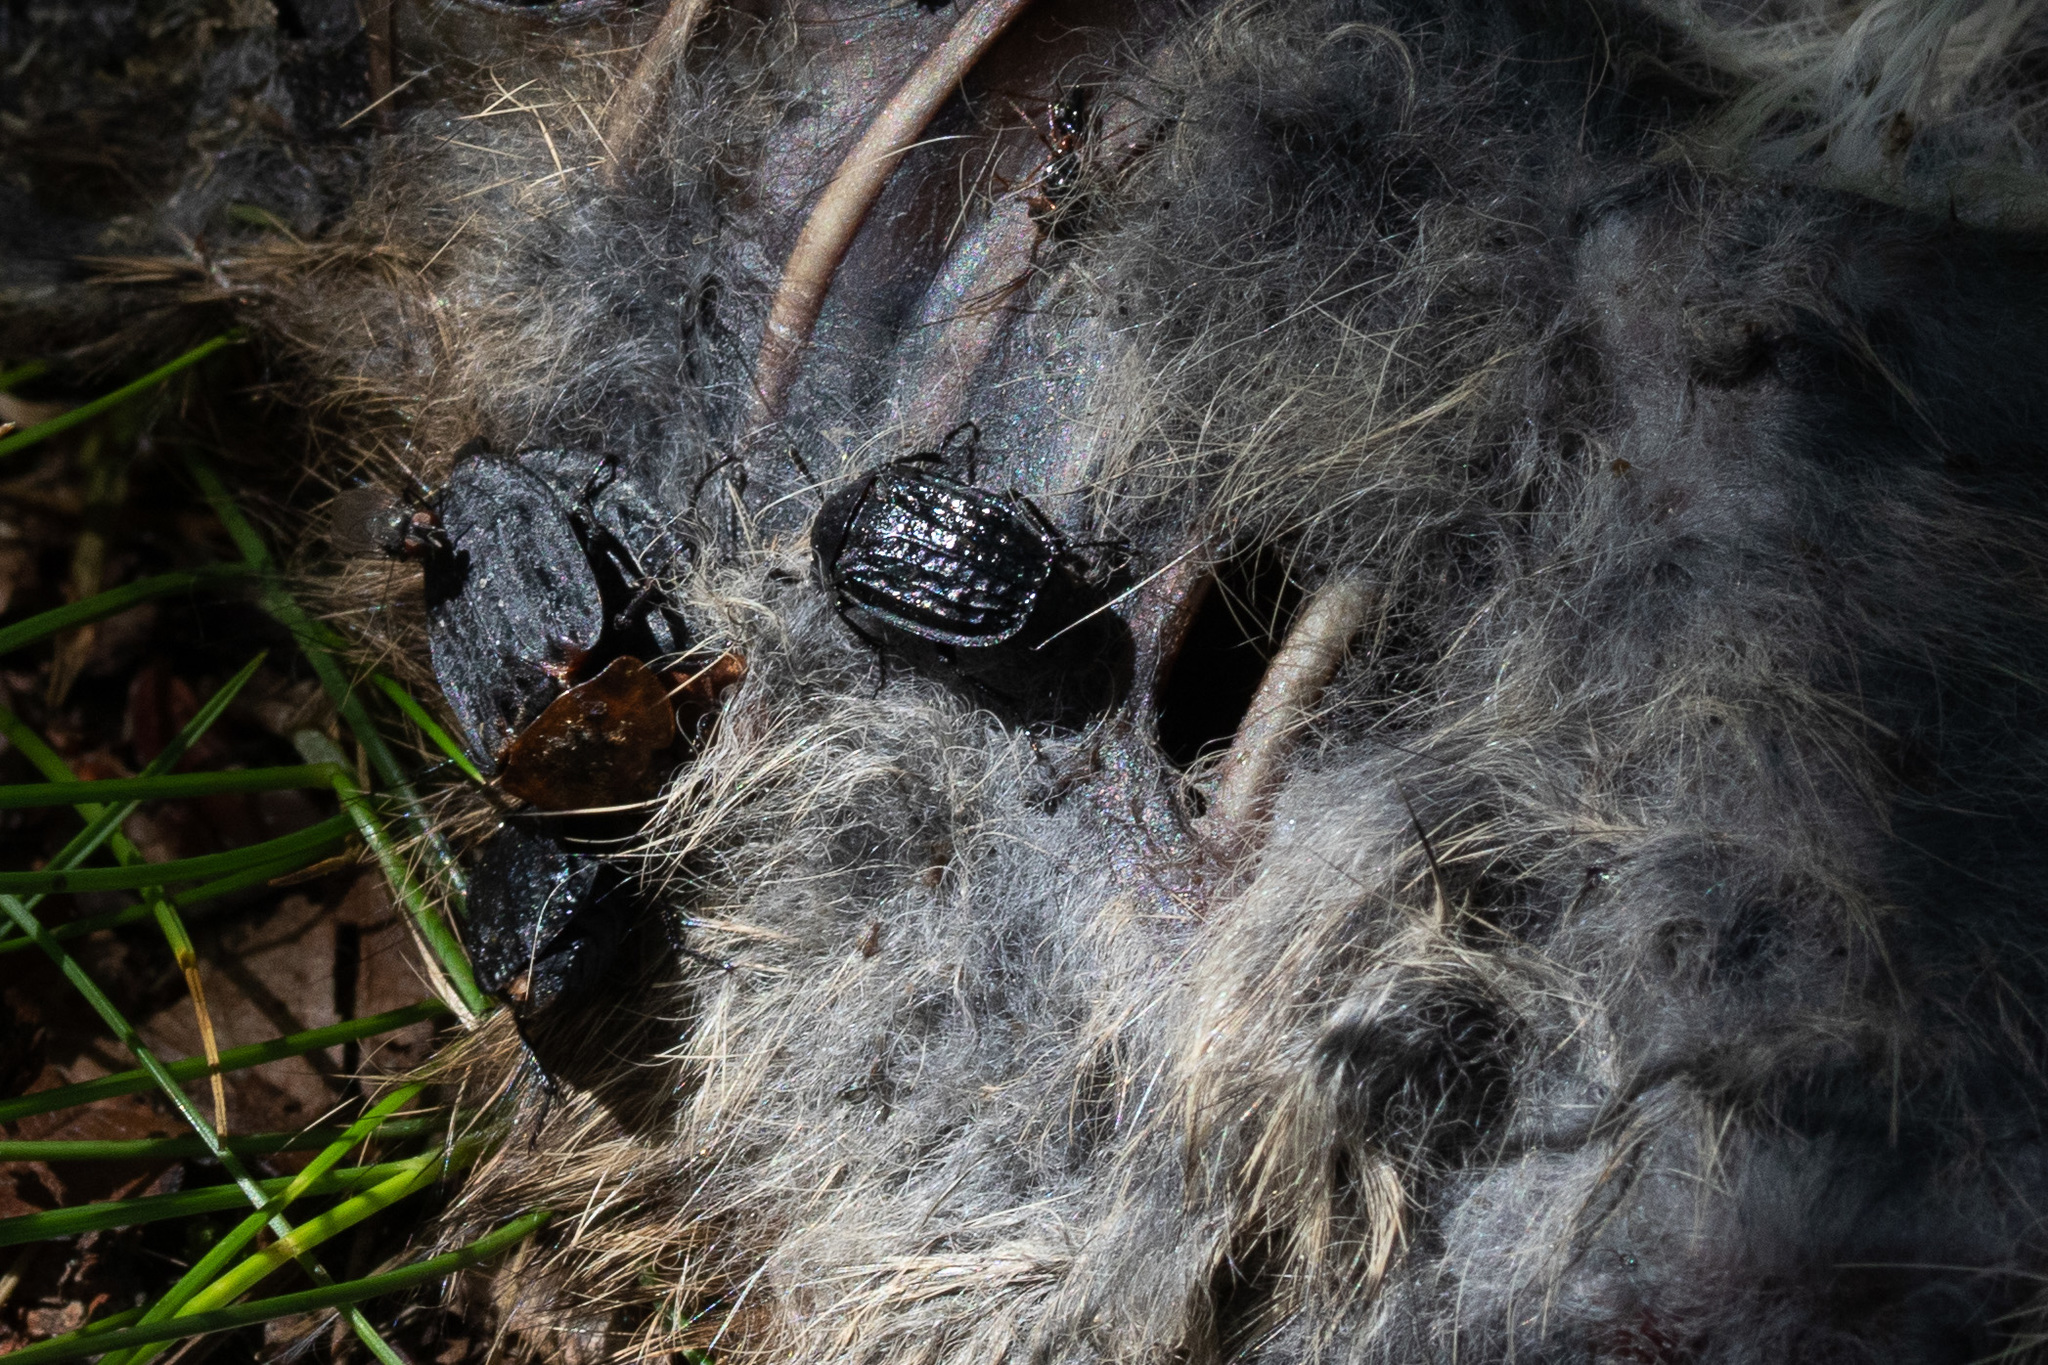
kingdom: Animalia
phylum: Arthropoda
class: Insecta
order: Coleoptera
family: Staphylinidae
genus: Thanatophilus
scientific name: Thanatophilus rugosus
